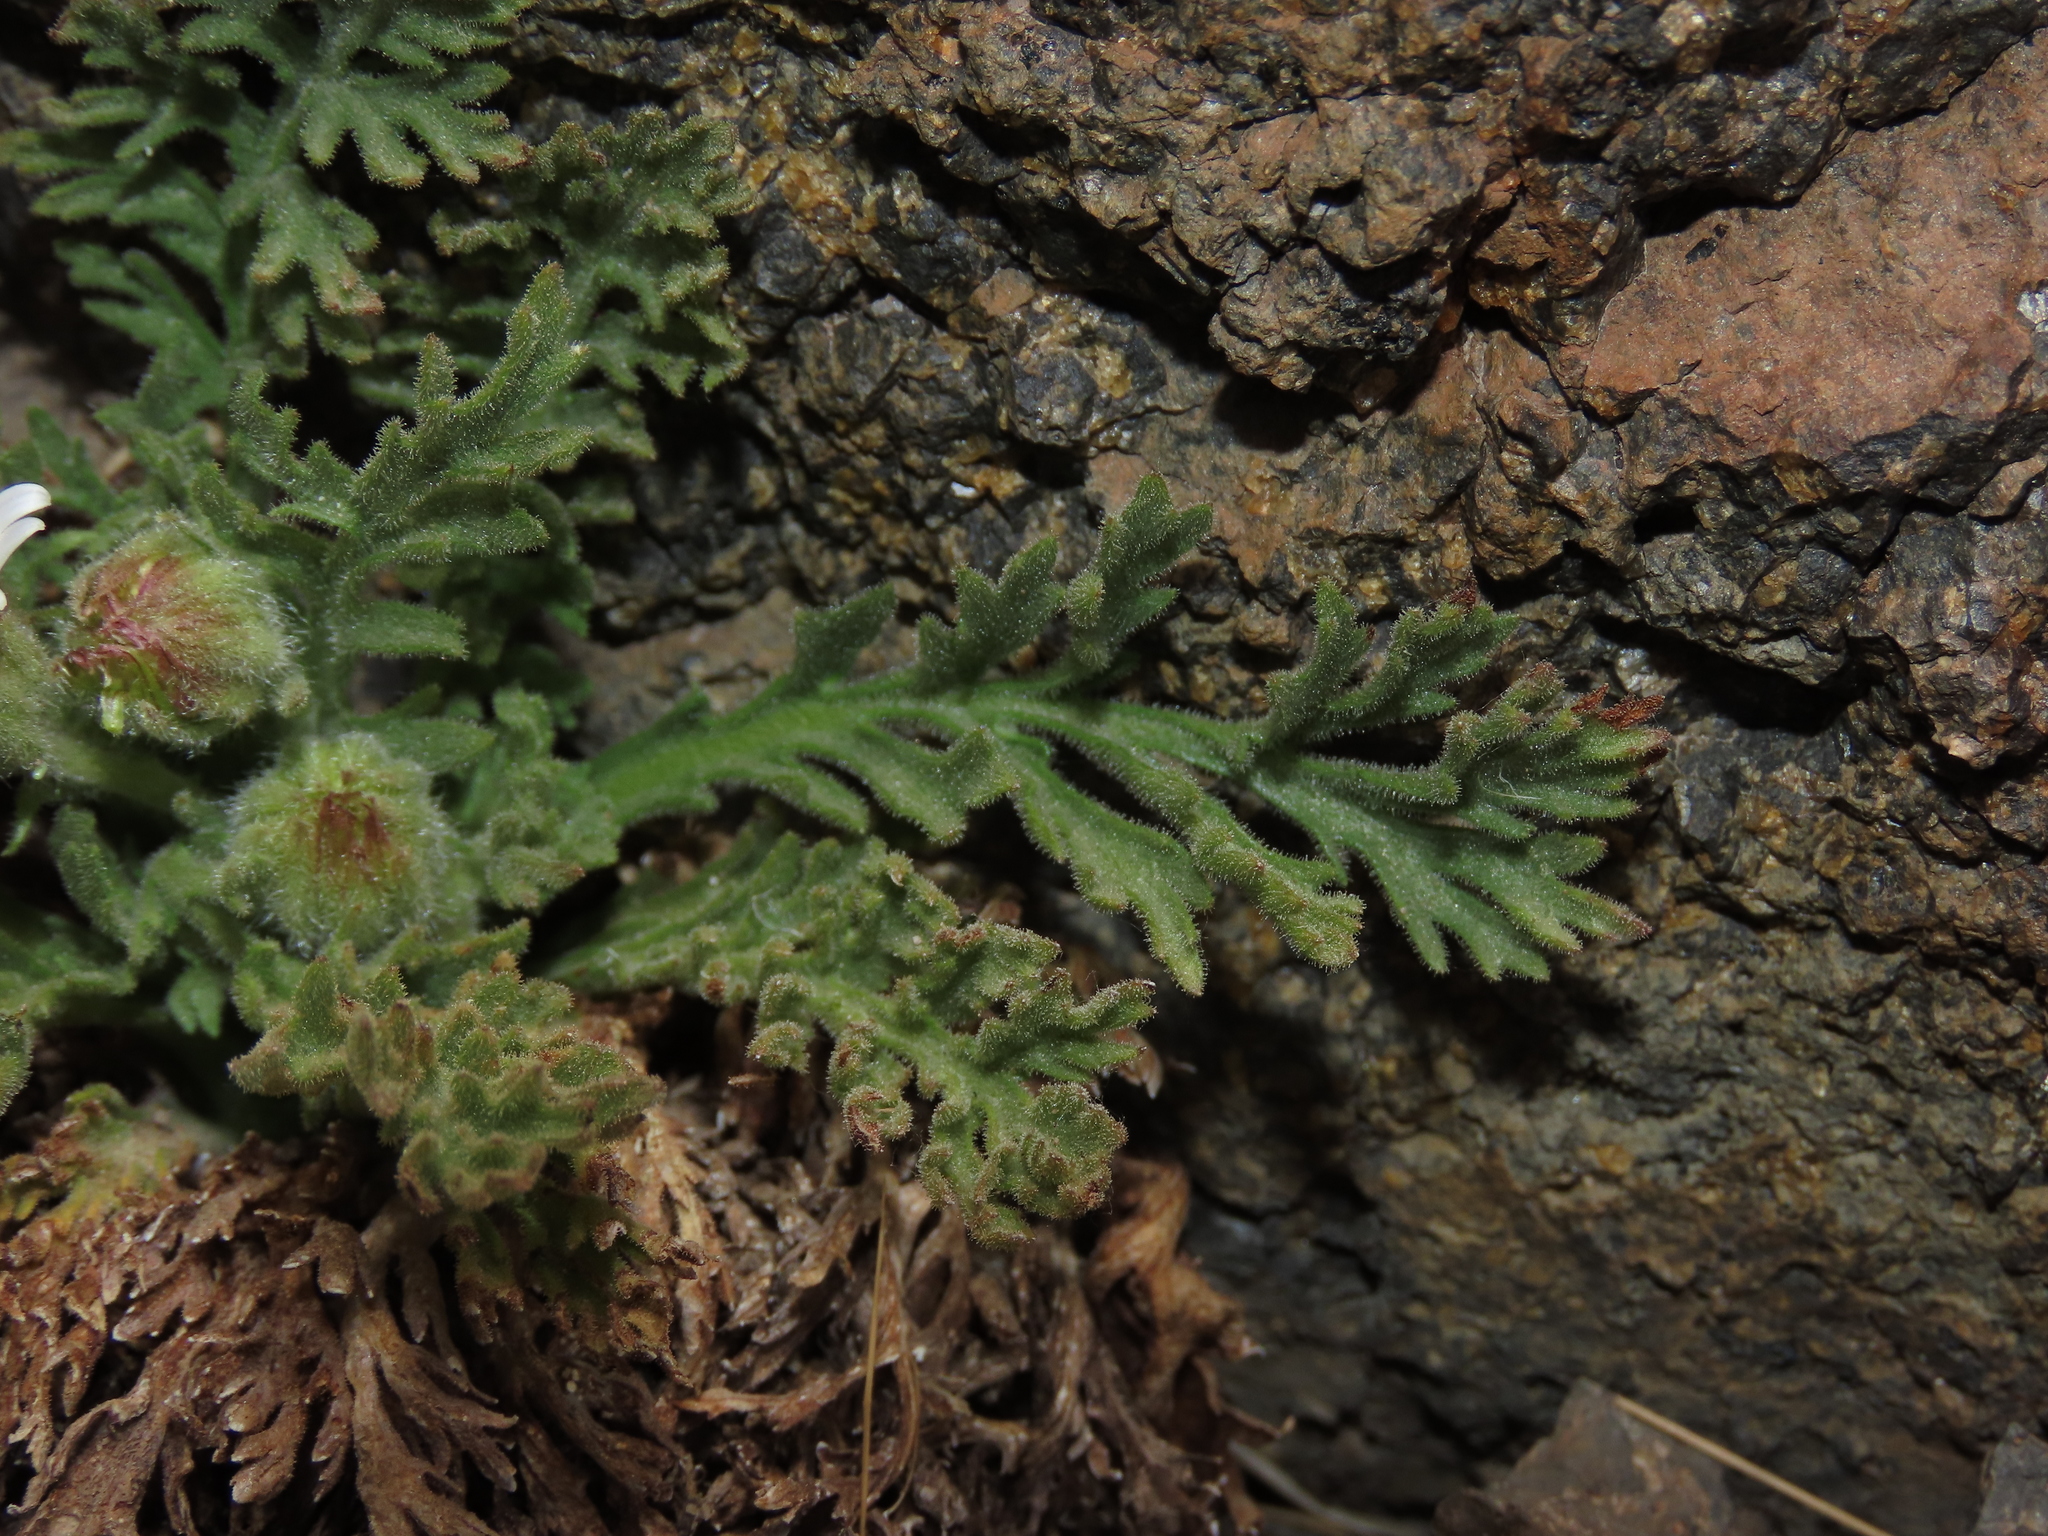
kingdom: Plantae
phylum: Tracheophyta
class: Magnoliopsida
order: Asterales
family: Asteraceae
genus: Leucheria
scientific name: Leucheria salina
